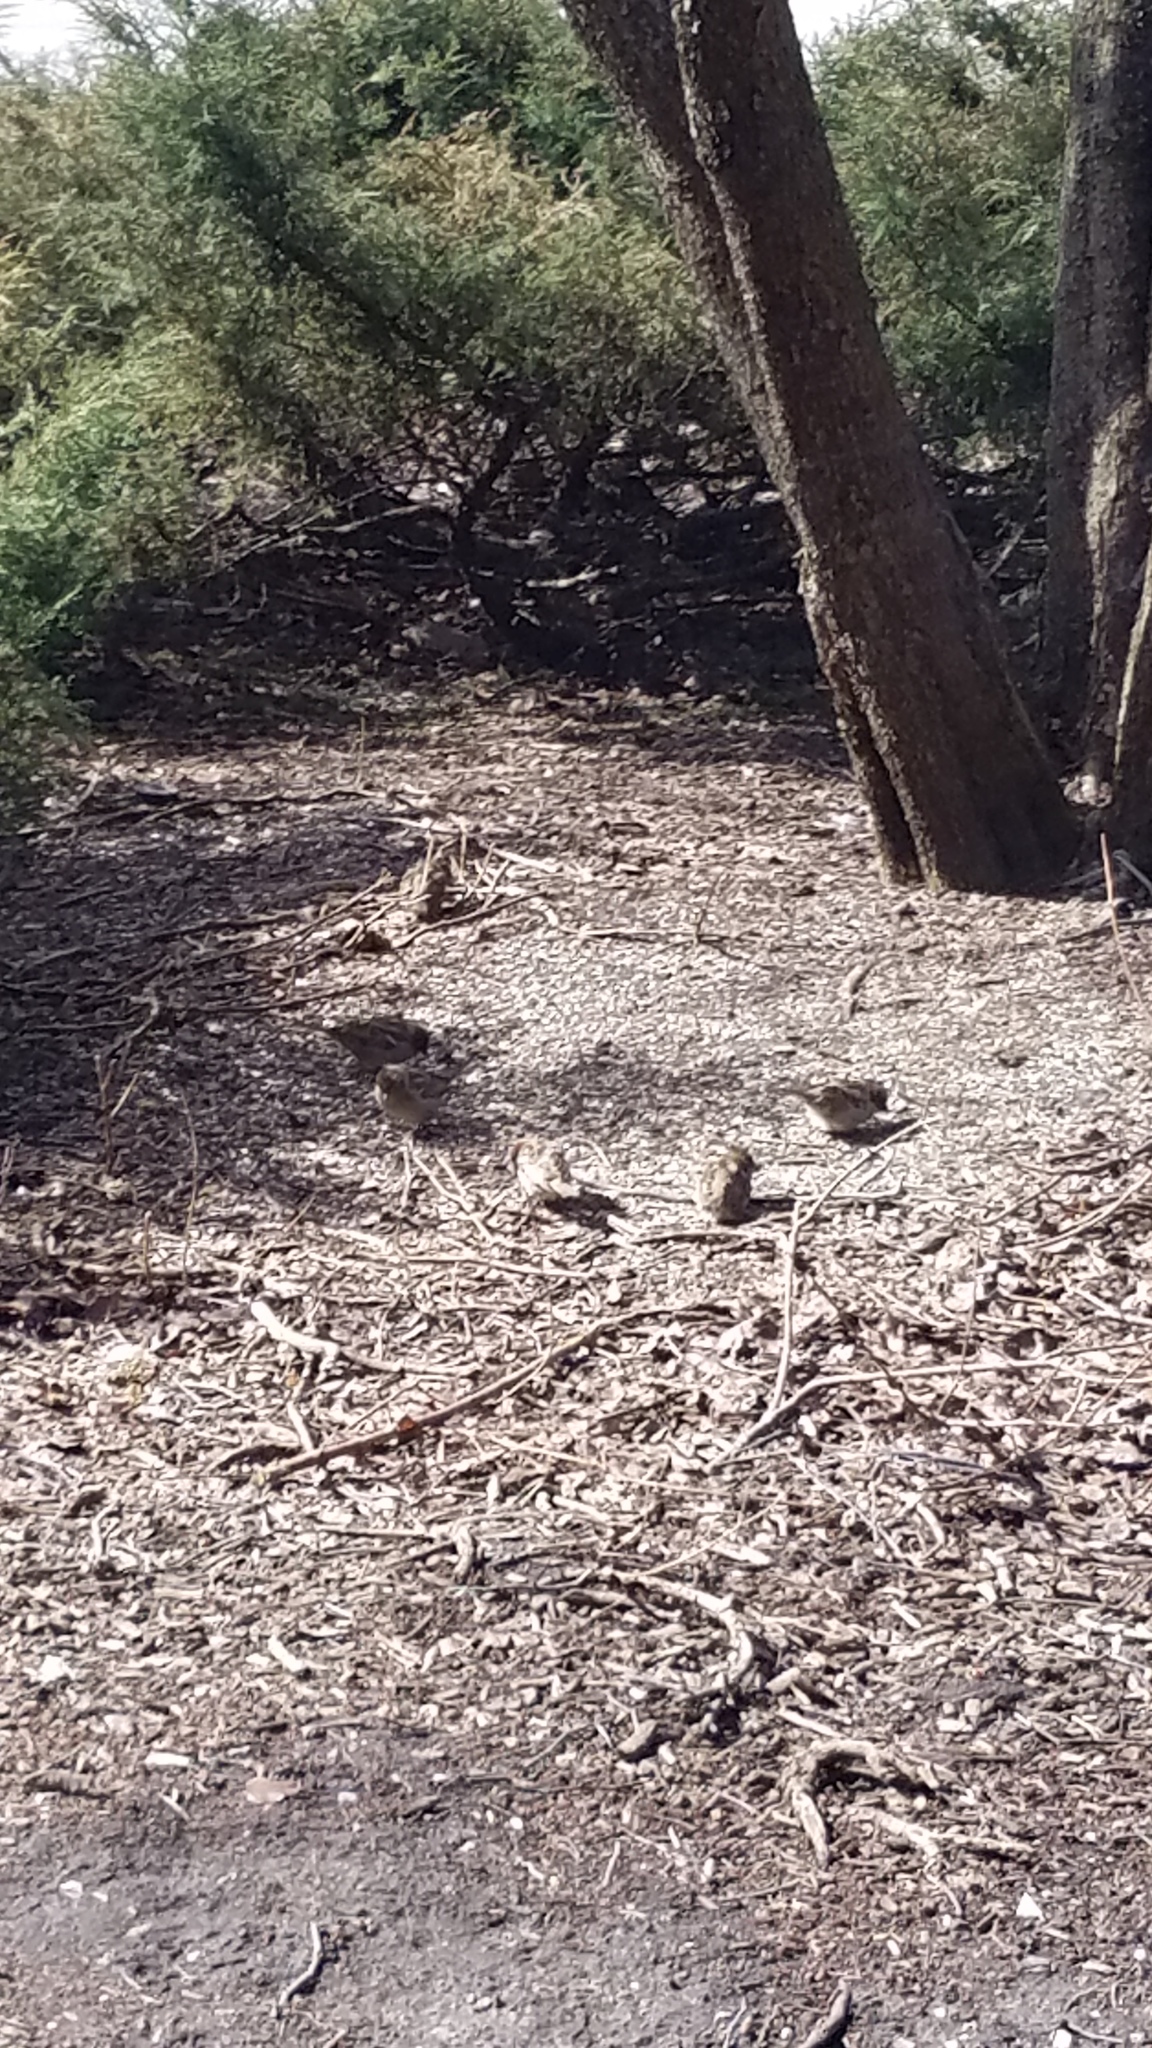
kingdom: Animalia
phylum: Chordata
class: Aves
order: Passeriformes
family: Passeridae
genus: Passer
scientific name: Passer domesticus
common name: House sparrow
